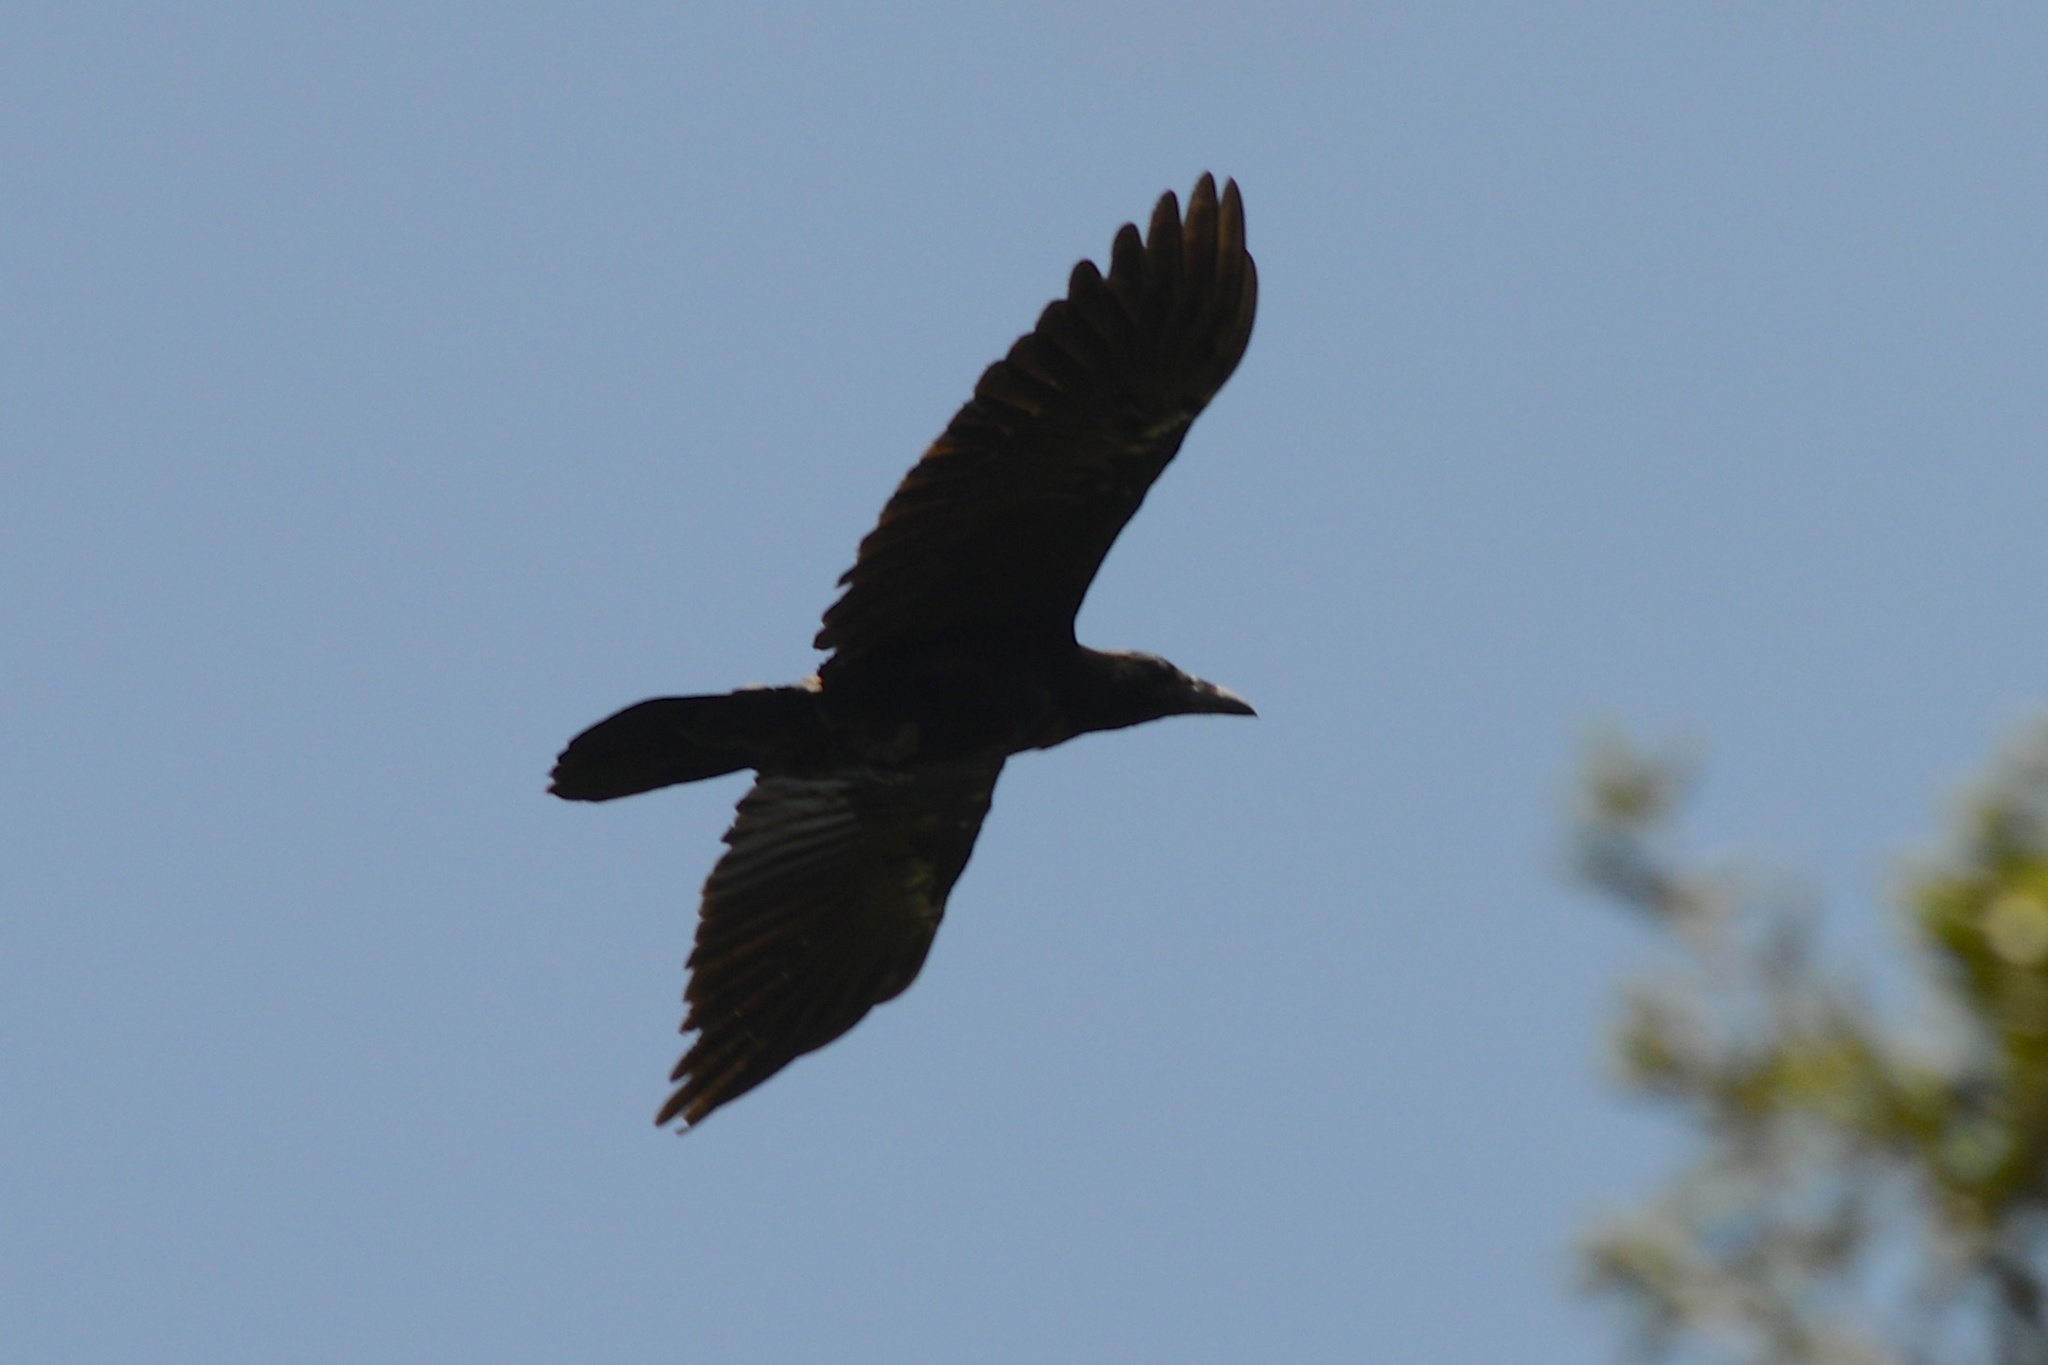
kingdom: Animalia
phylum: Chordata
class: Aves
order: Passeriformes
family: Corvidae
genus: Corvus
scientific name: Corvus brachyrhynchos
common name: American crow
